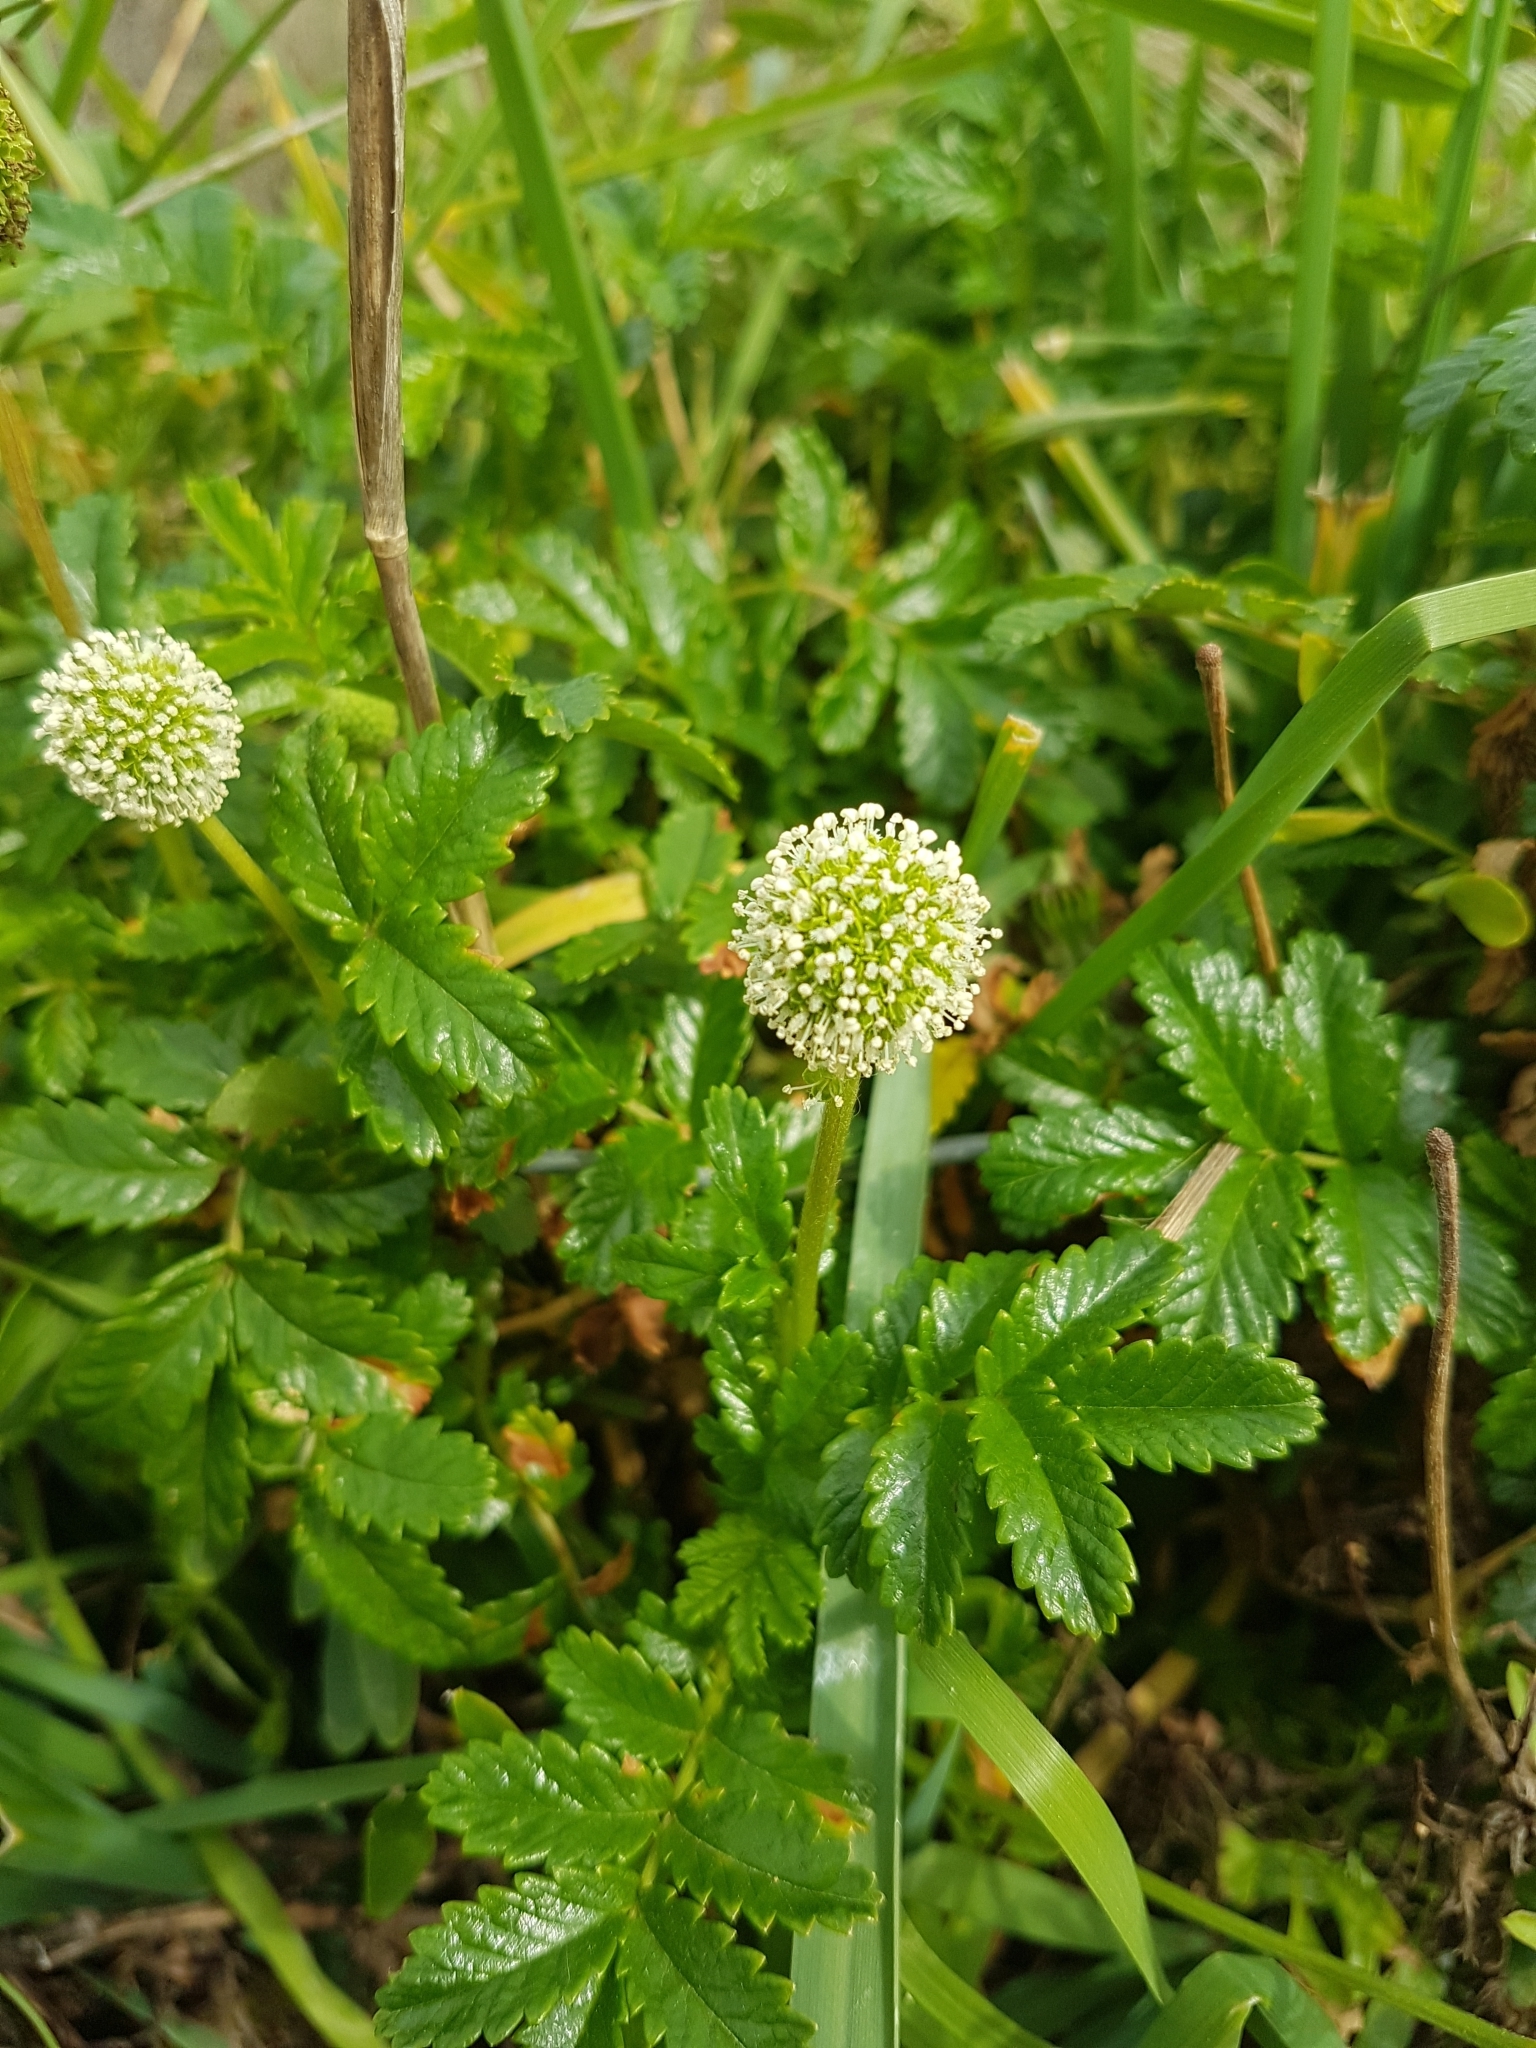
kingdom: Plantae
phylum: Tracheophyta
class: Magnoliopsida
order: Rosales
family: Rosaceae
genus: Acaena
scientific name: Acaena novae-zelandiae
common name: Pirri-pirri-bur
